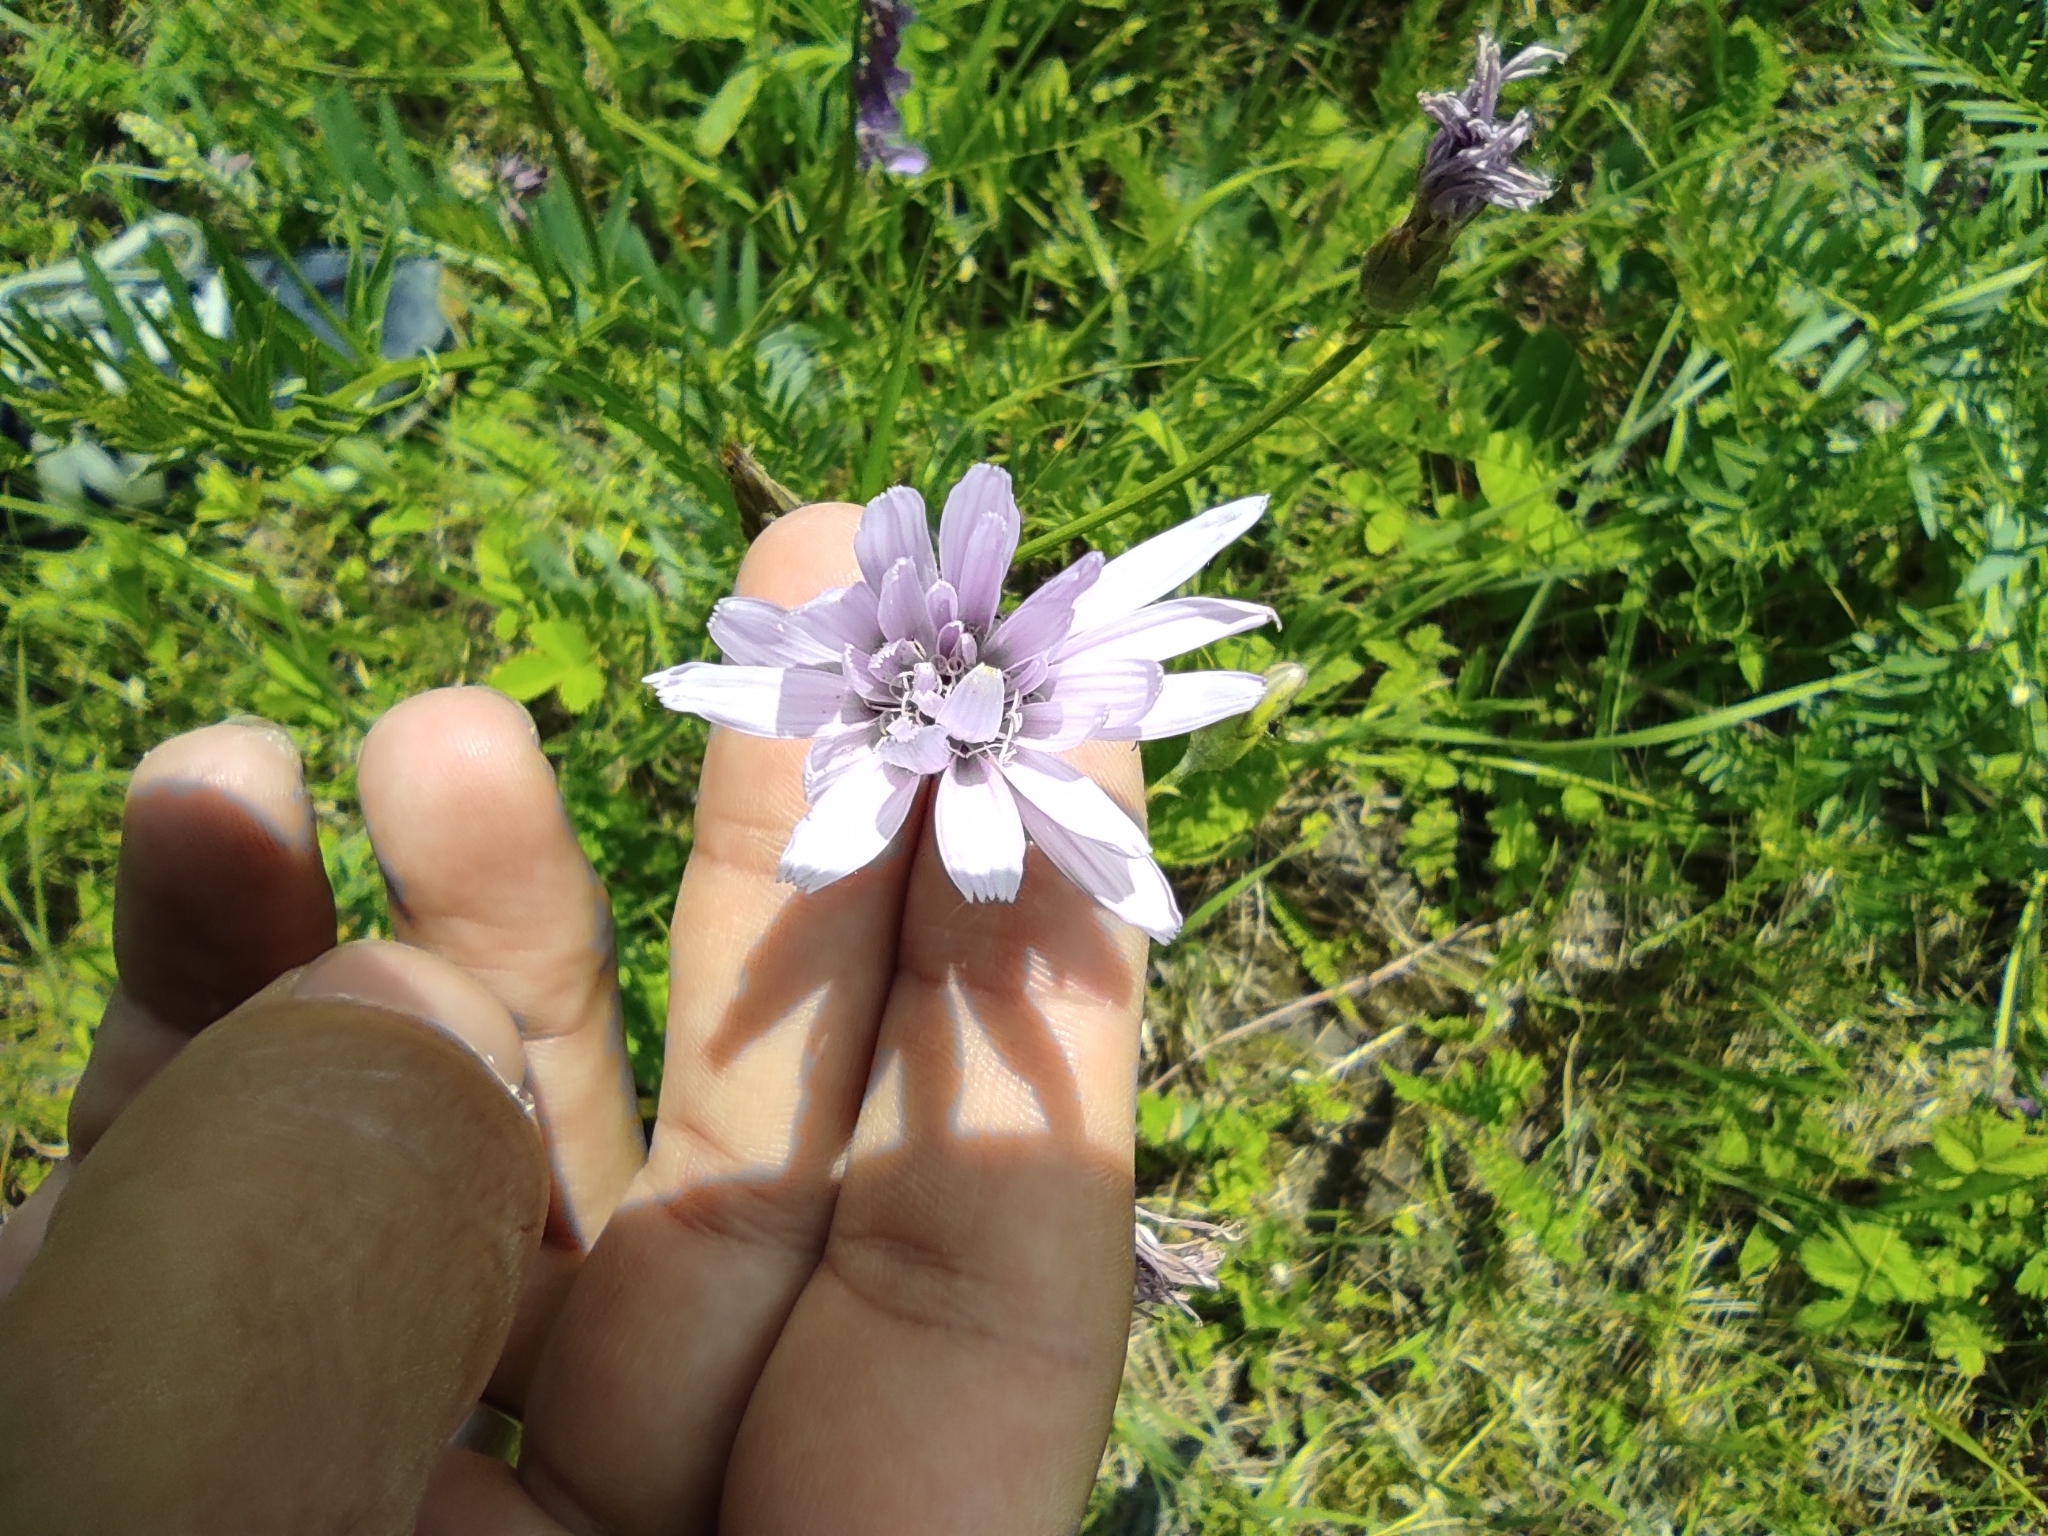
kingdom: Plantae
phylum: Tracheophyta
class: Magnoliopsida
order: Asterales
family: Asteraceae
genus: Scorzonera
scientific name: Scorzonera purpurea
